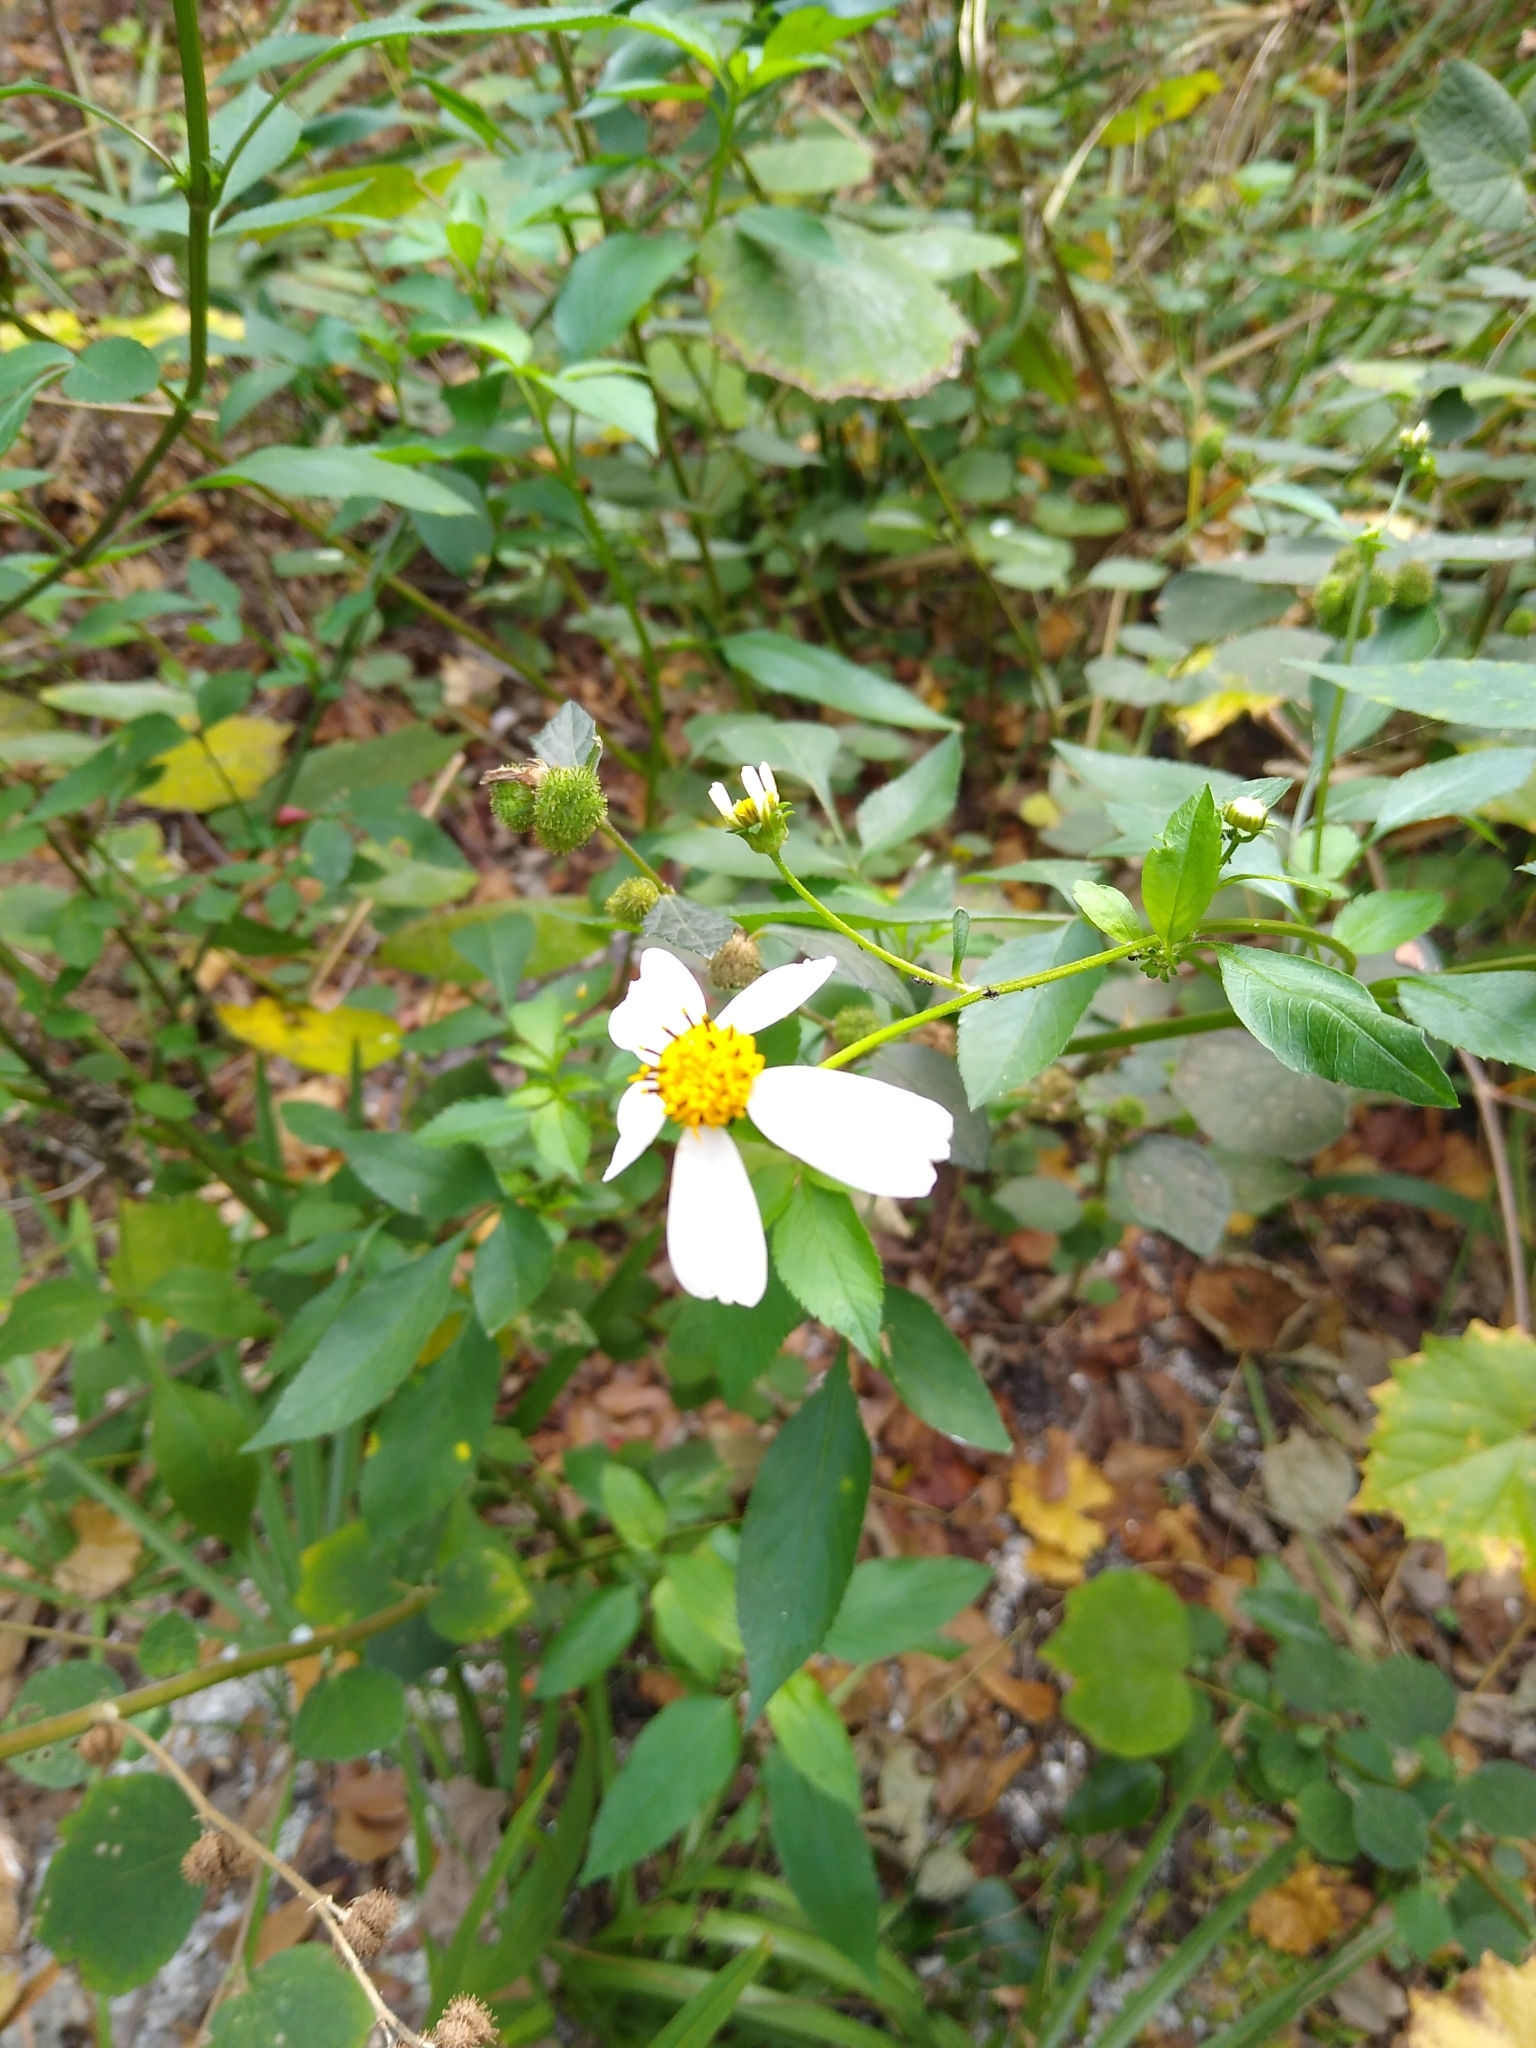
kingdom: Plantae
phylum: Tracheophyta
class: Magnoliopsida
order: Asterales
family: Asteraceae
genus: Bidens
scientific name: Bidens alba
